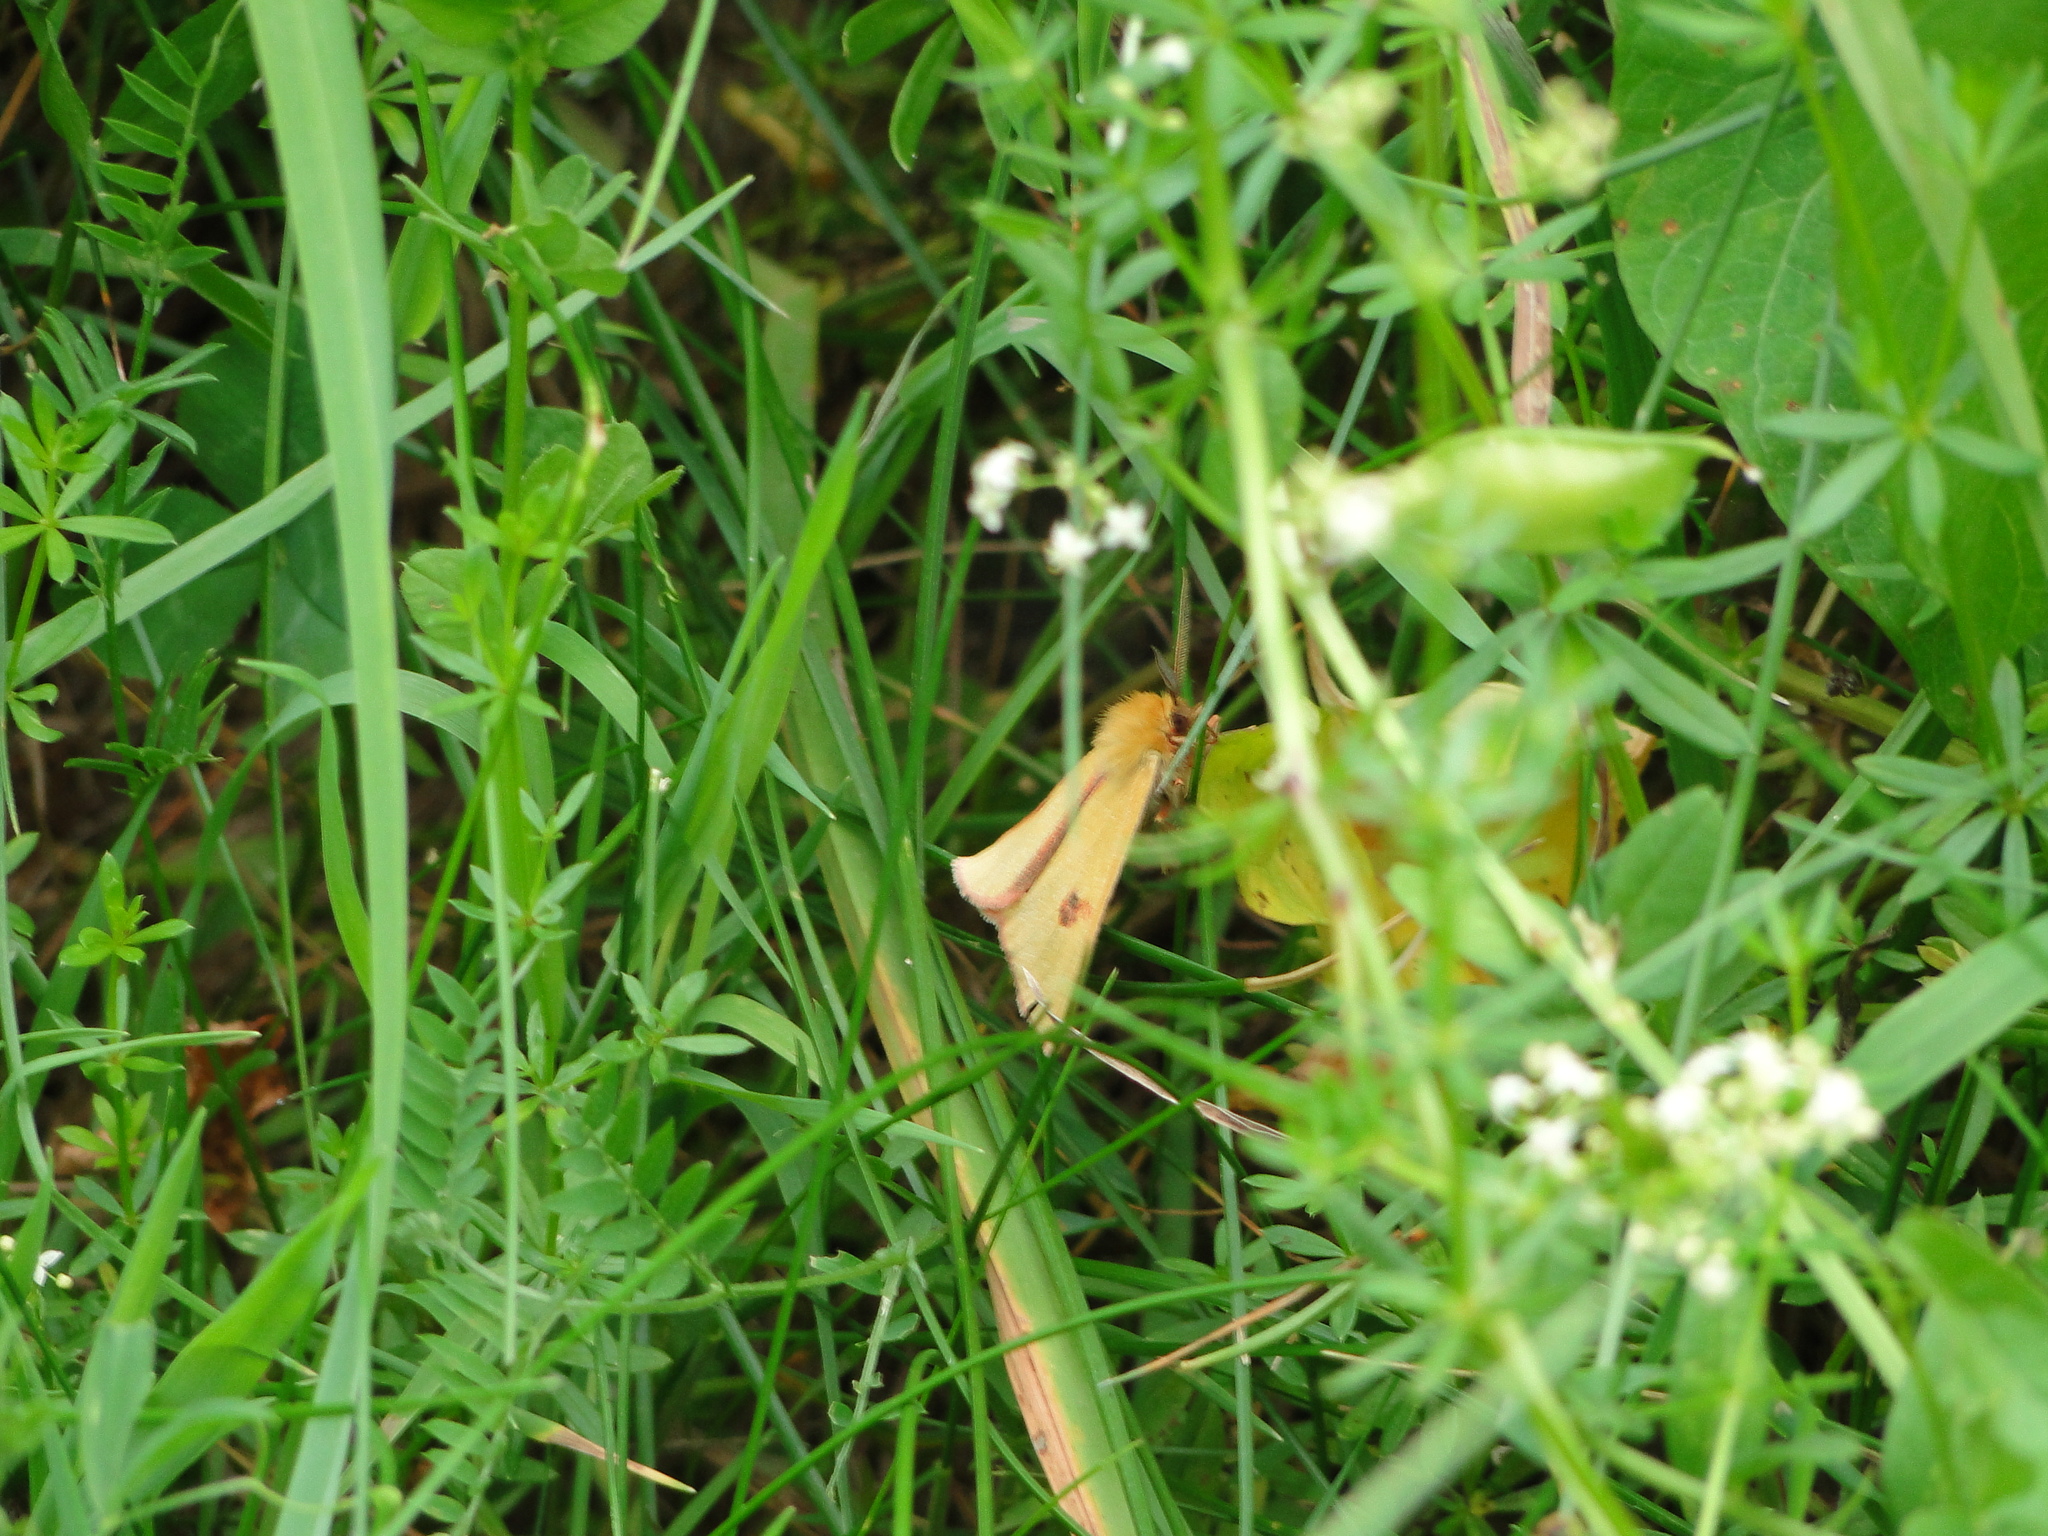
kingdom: Animalia
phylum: Arthropoda
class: Insecta
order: Lepidoptera
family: Erebidae
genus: Diacrisia
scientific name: Diacrisia sannio
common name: Clouded buff
